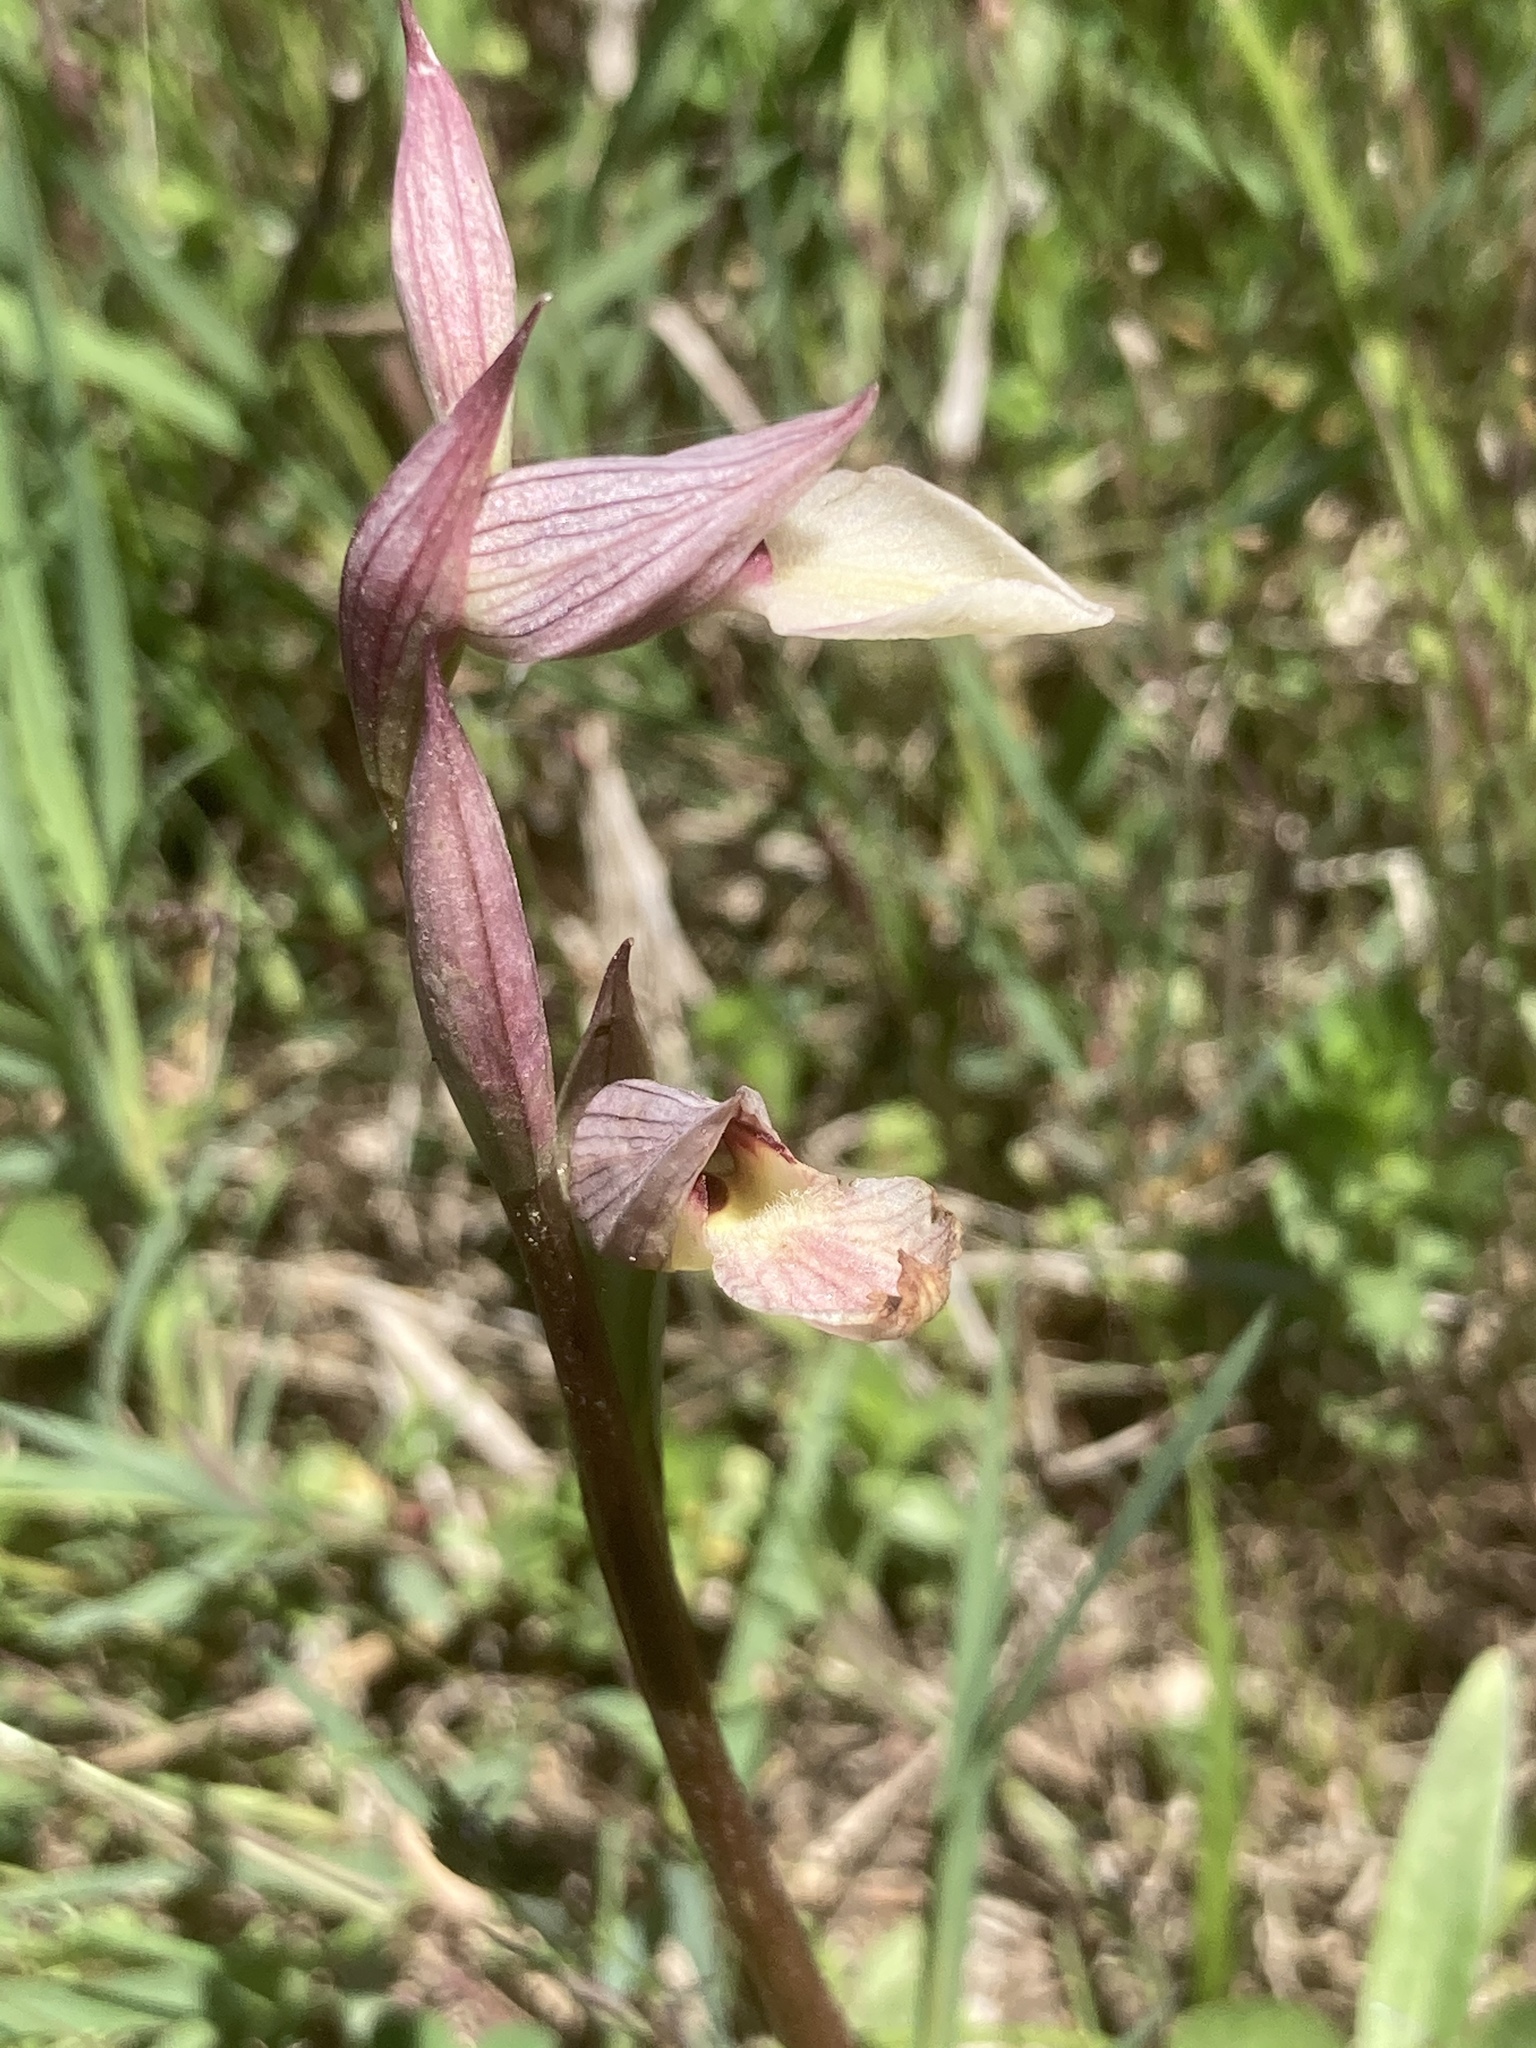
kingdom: Plantae
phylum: Tracheophyta
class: Liliopsida
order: Asparagales
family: Orchidaceae
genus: Serapias
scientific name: Serapias lingua
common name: Tongue-orchid
